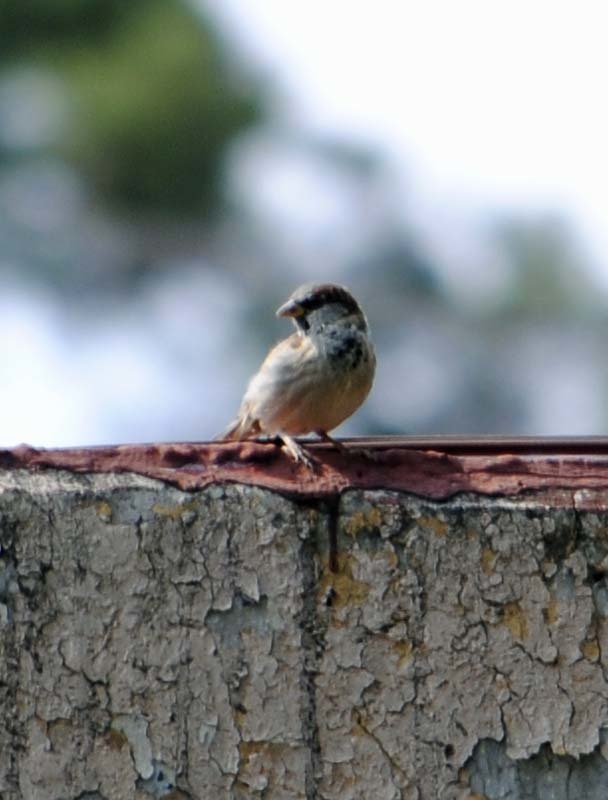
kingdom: Animalia
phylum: Chordata
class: Aves
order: Passeriformes
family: Passeridae
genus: Passer
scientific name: Passer domesticus
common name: House sparrow
